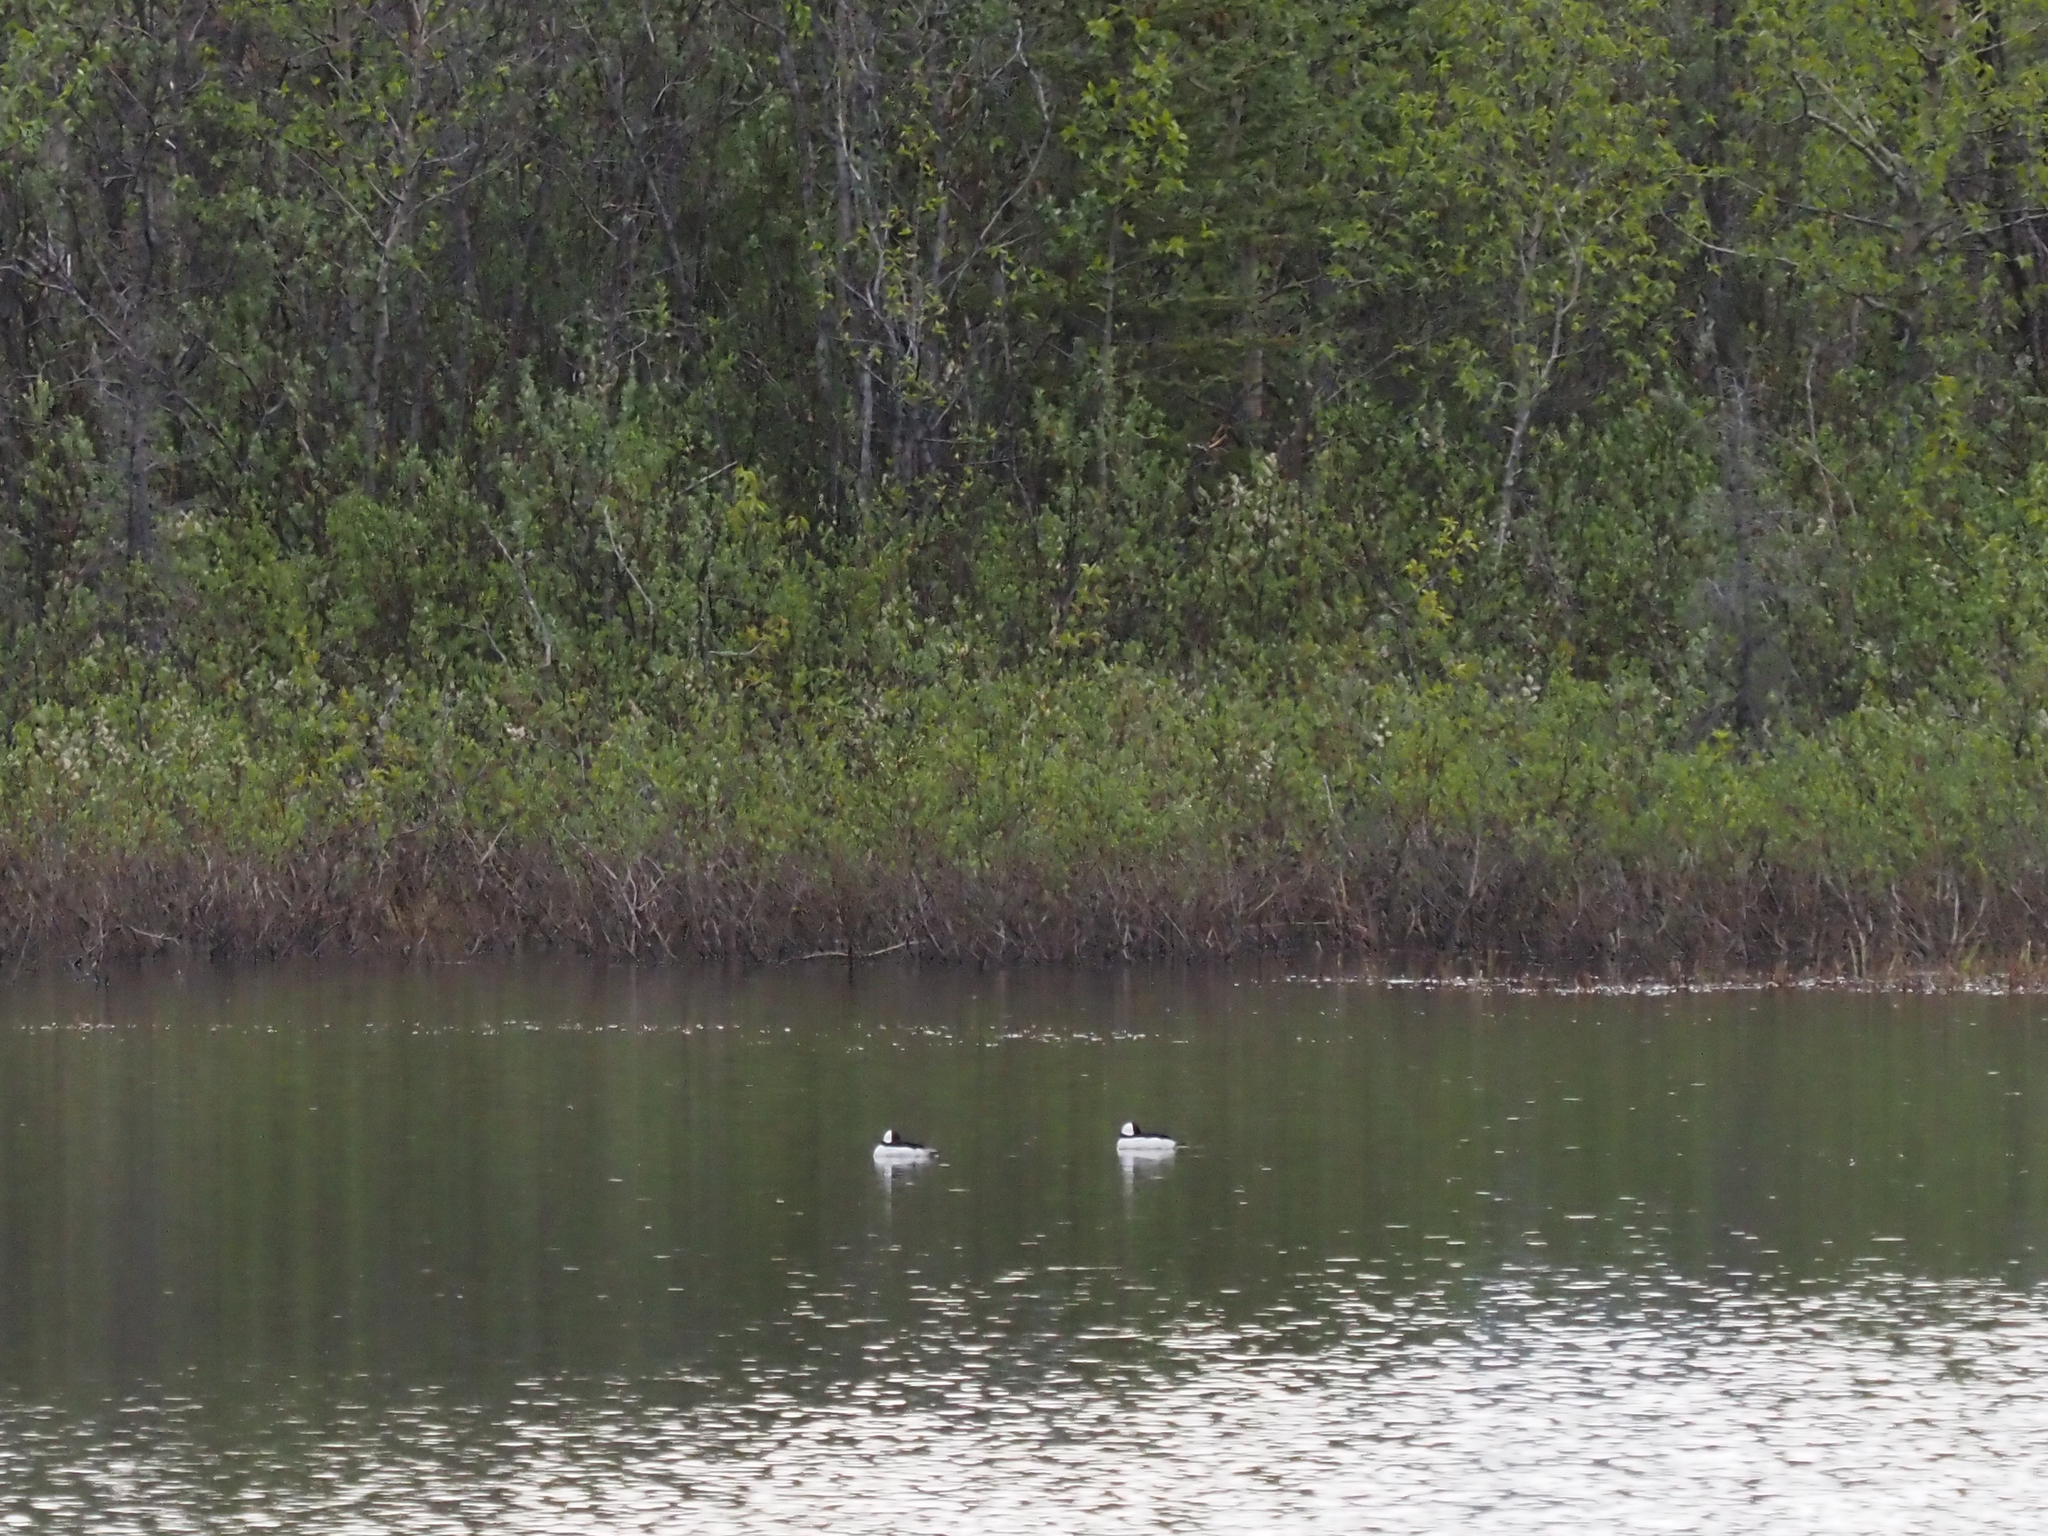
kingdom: Animalia
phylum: Chordata
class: Aves
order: Anseriformes
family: Anatidae
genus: Bucephala
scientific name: Bucephala albeola
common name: Bufflehead
